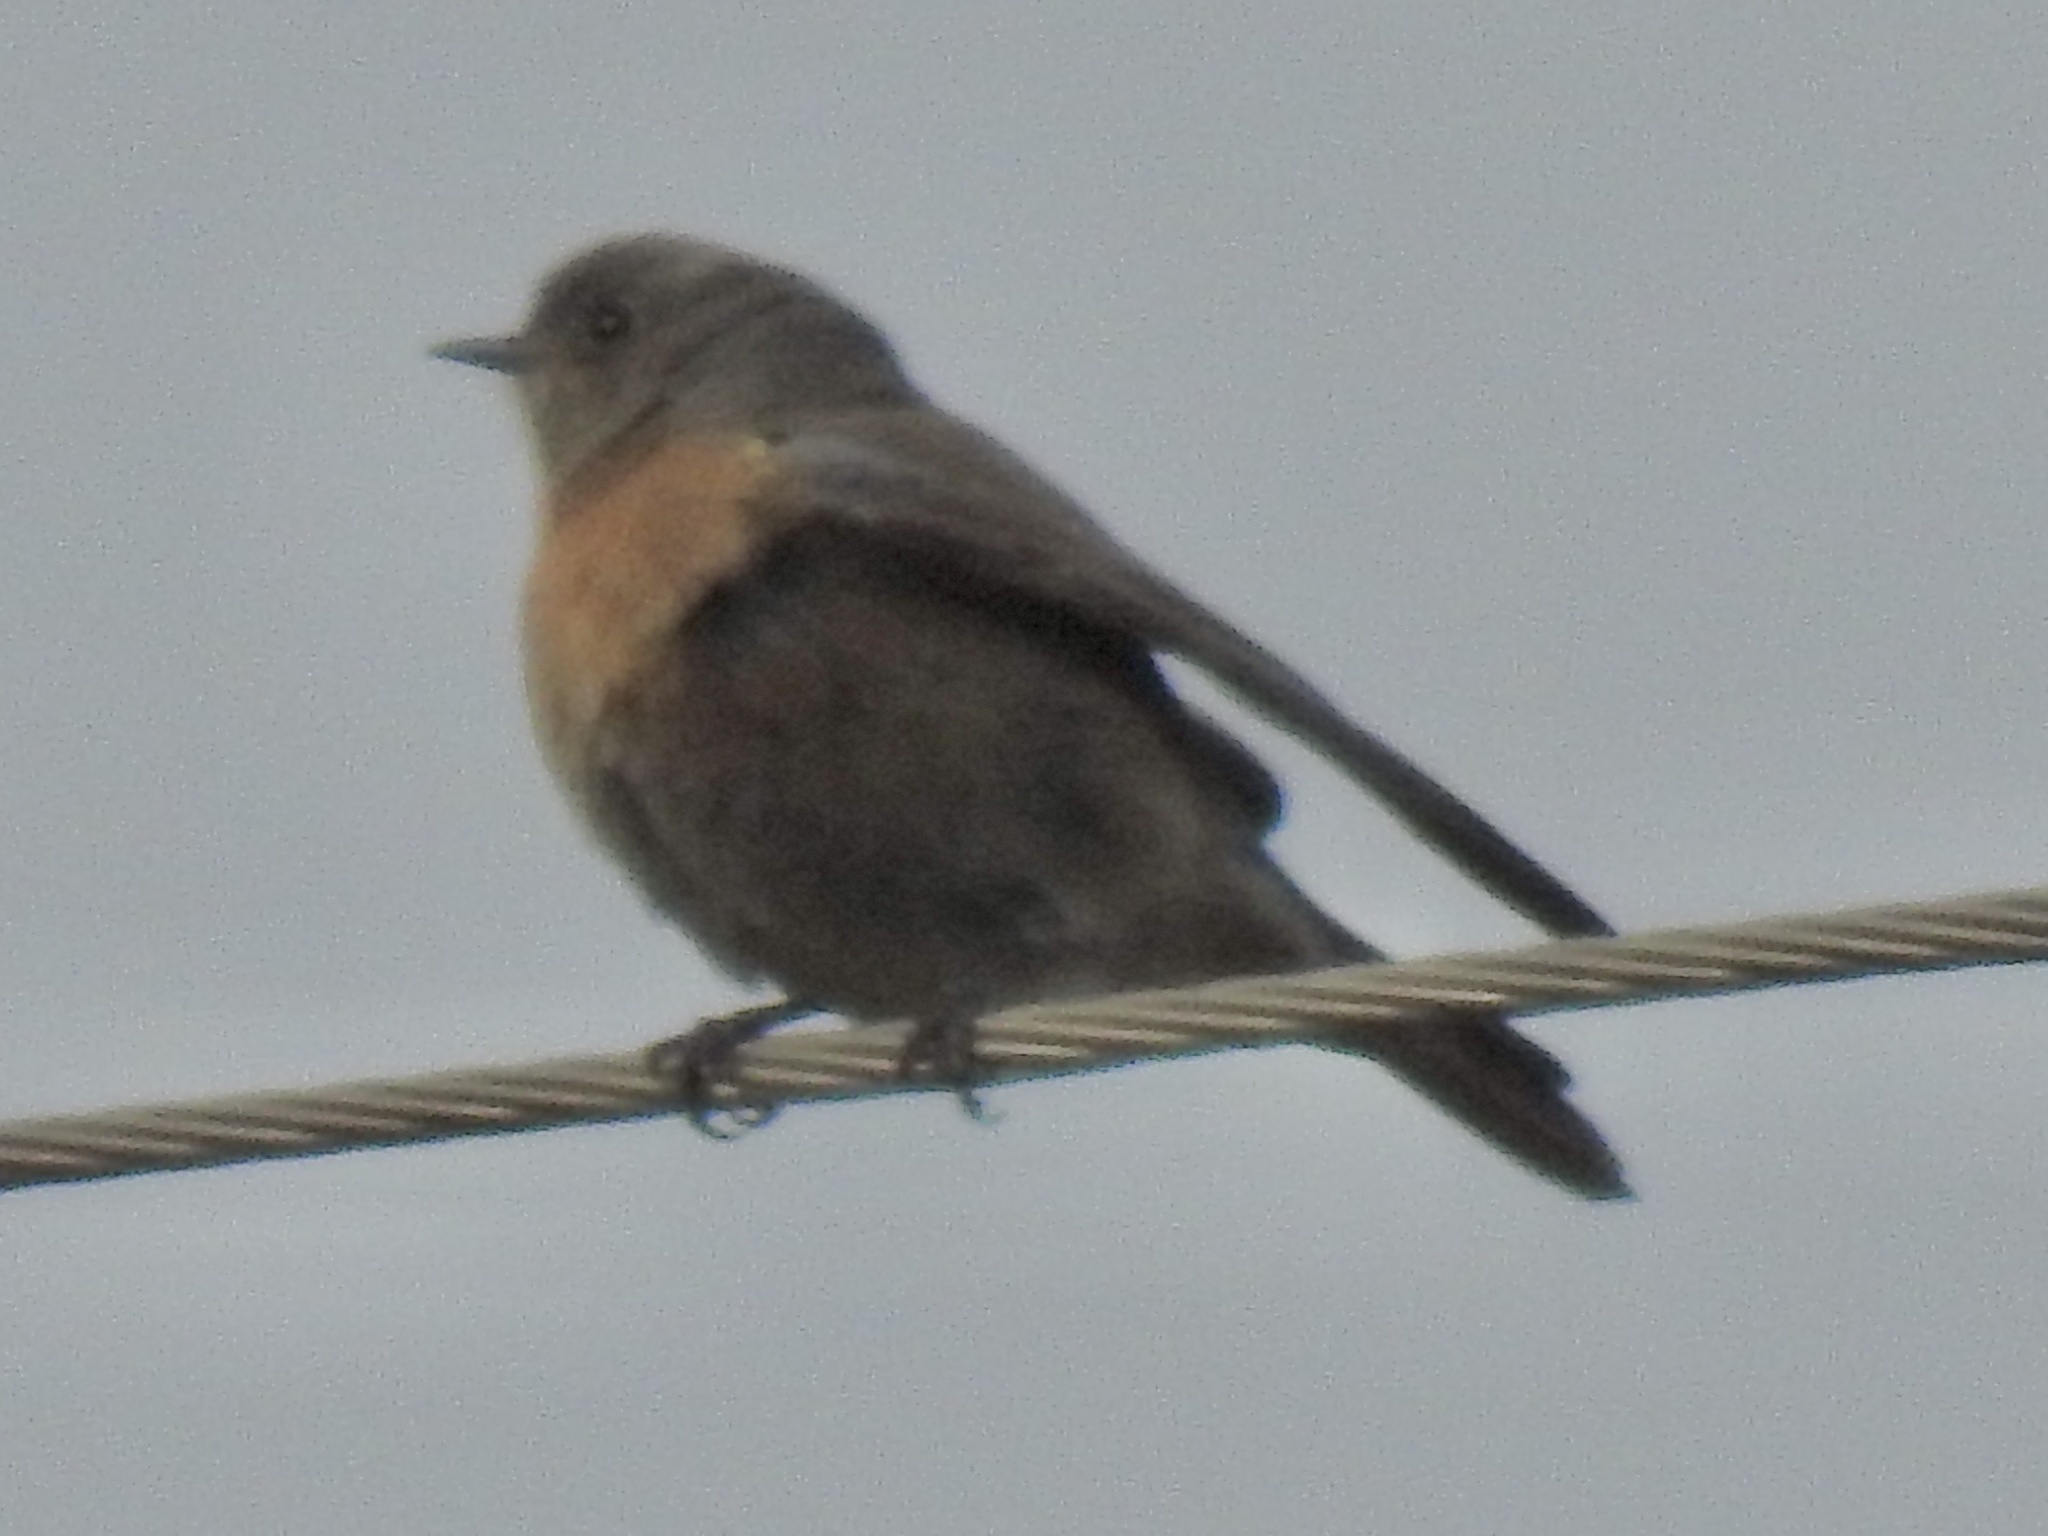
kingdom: Animalia
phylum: Chordata
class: Aves
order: Passeriformes
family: Turdidae
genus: Sialia
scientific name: Sialia mexicana
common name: Western bluebird
